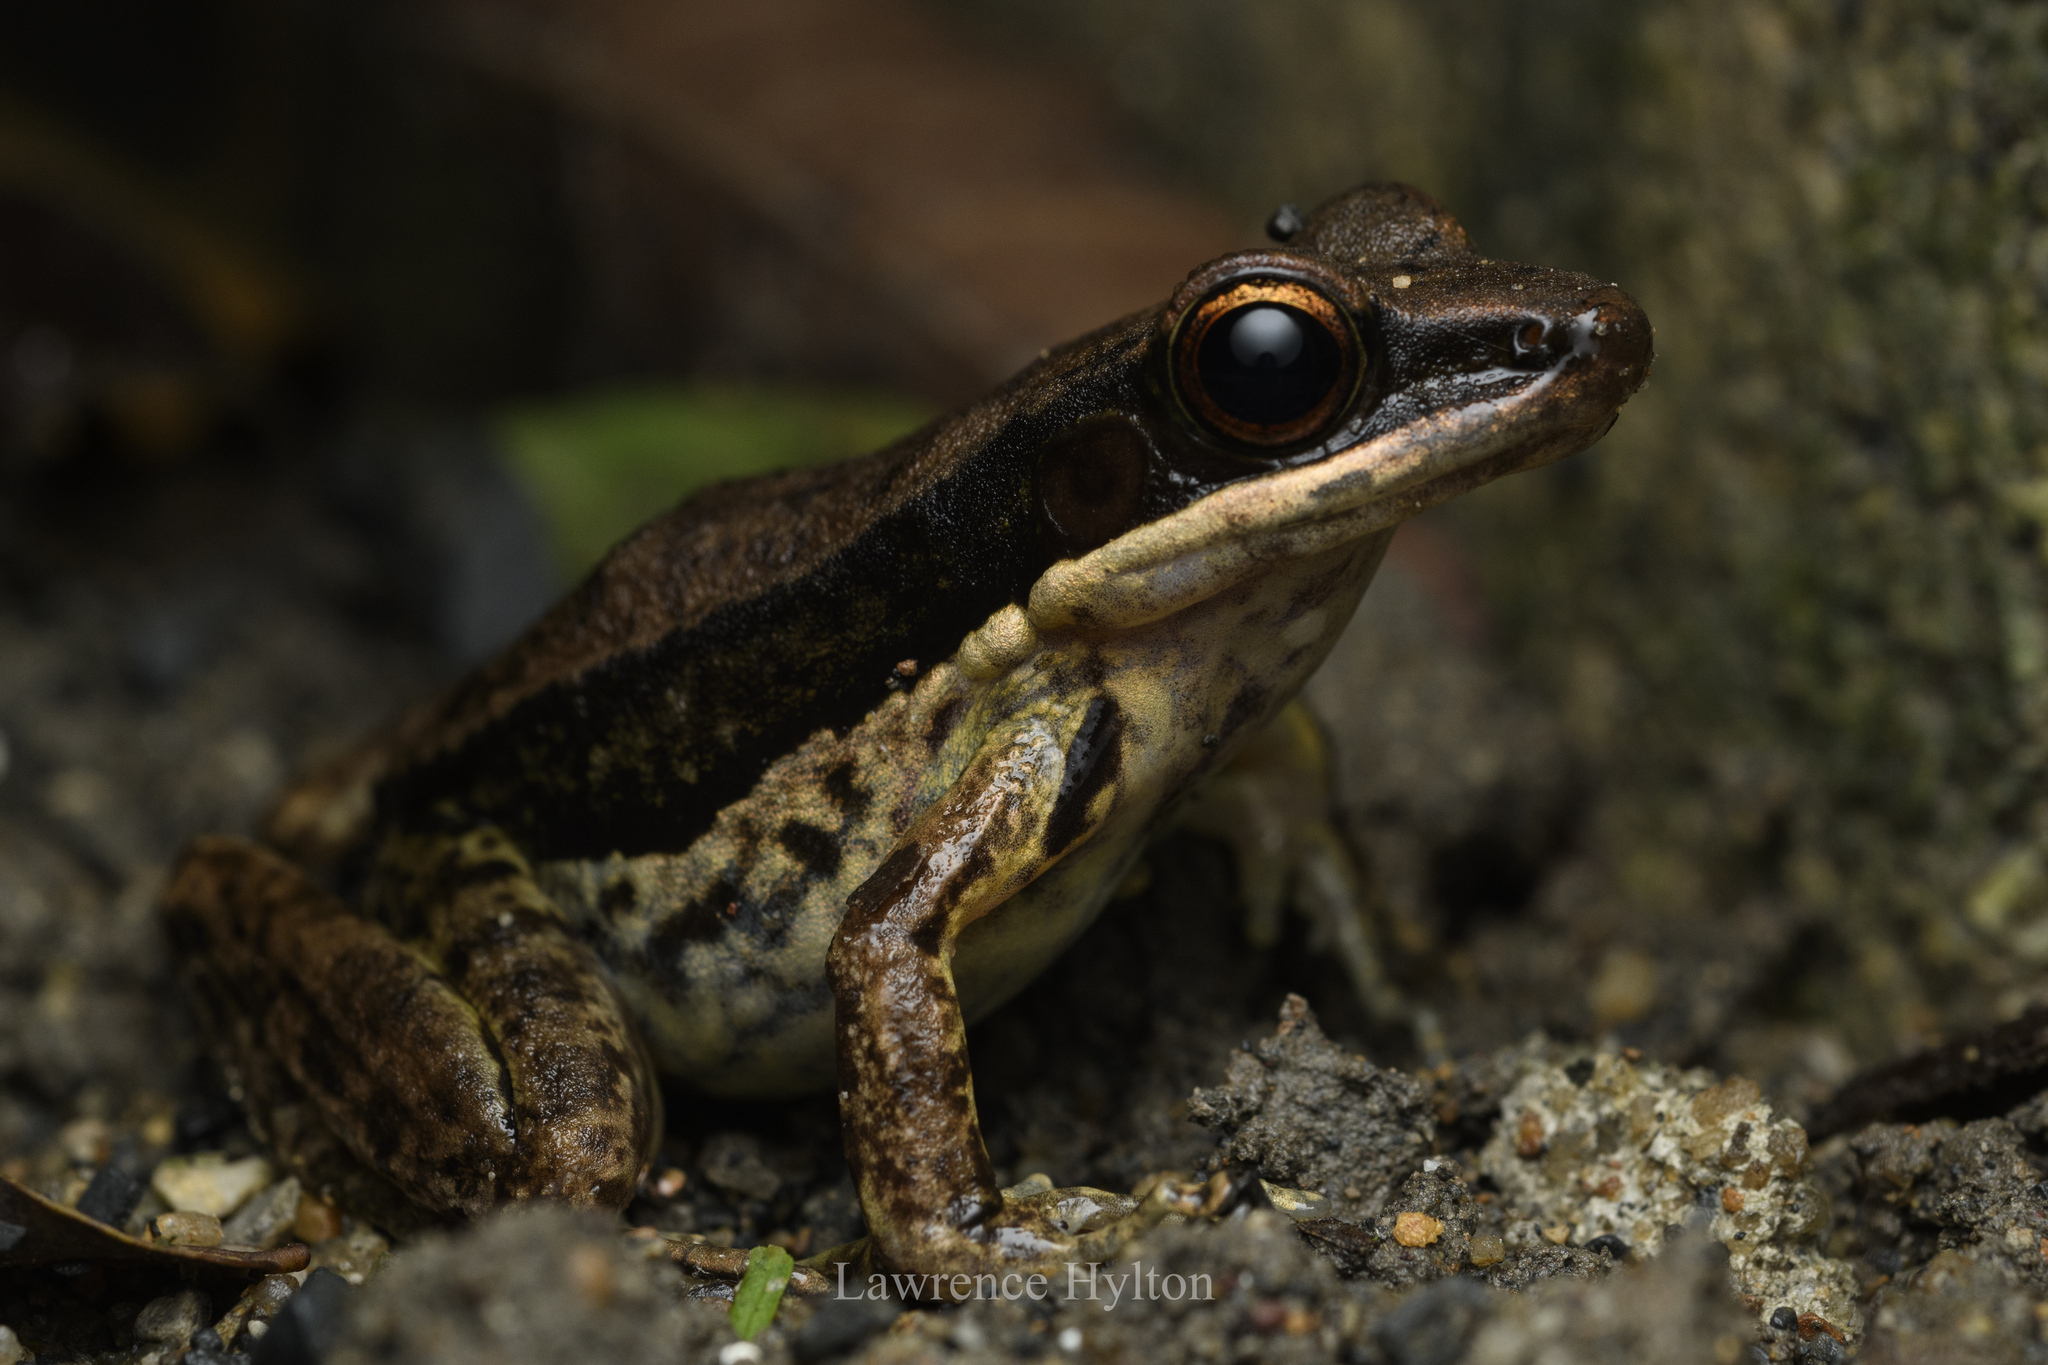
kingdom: Animalia
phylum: Chordata
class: Amphibia
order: Anura
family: Ranidae
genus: Sylvirana
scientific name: Sylvirana malayana
